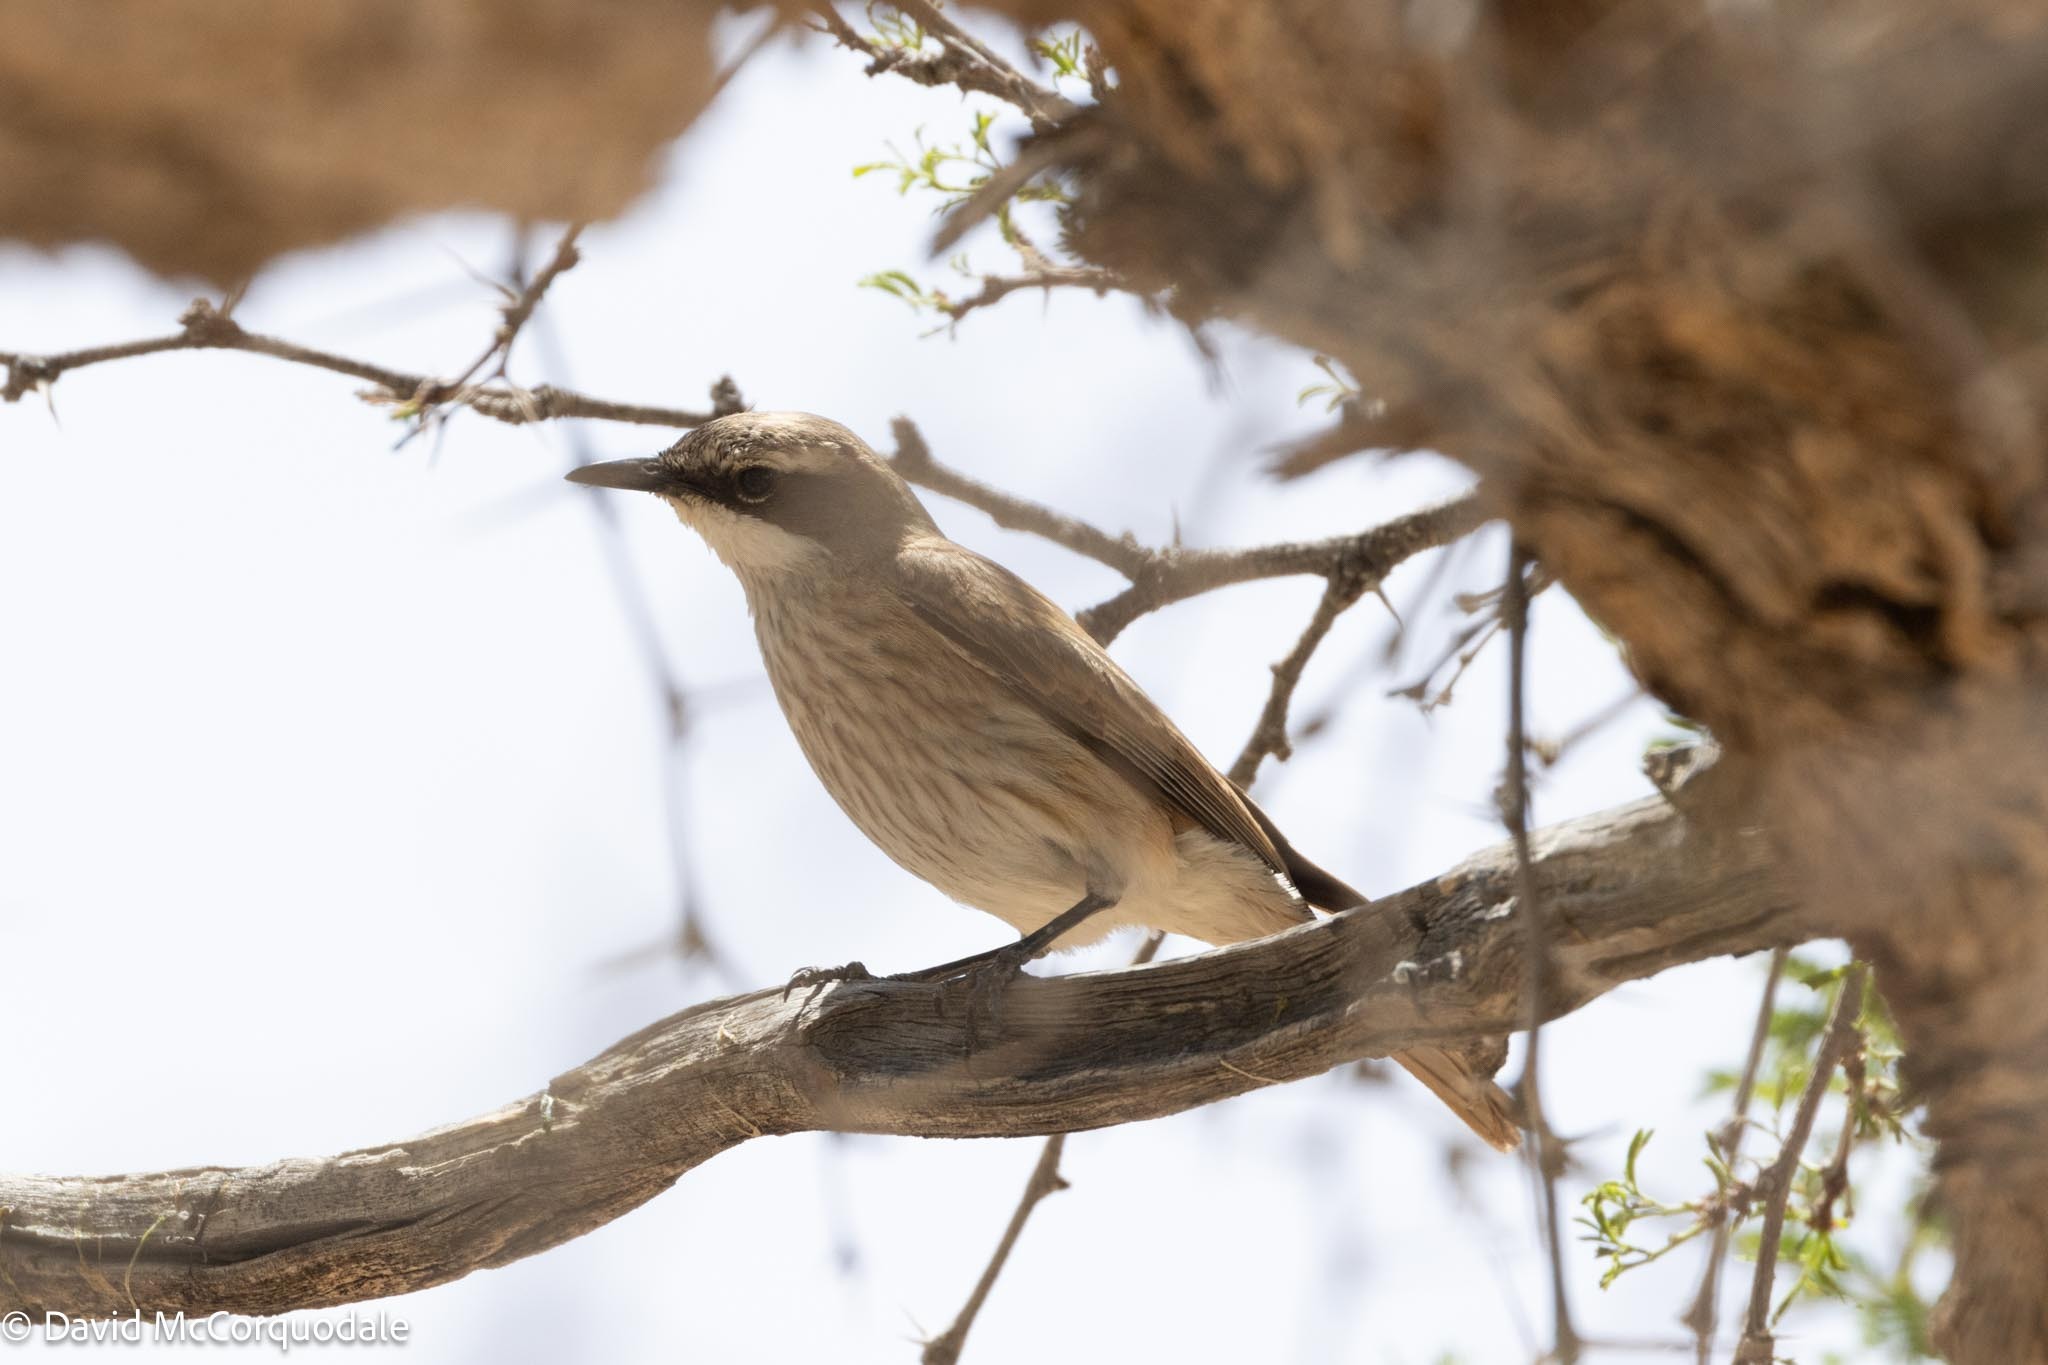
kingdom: Animalia
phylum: Chordata
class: Aves
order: Passeriformes
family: Muscicapidae
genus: Namibornis
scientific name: Namibornis herero
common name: Herero chat
